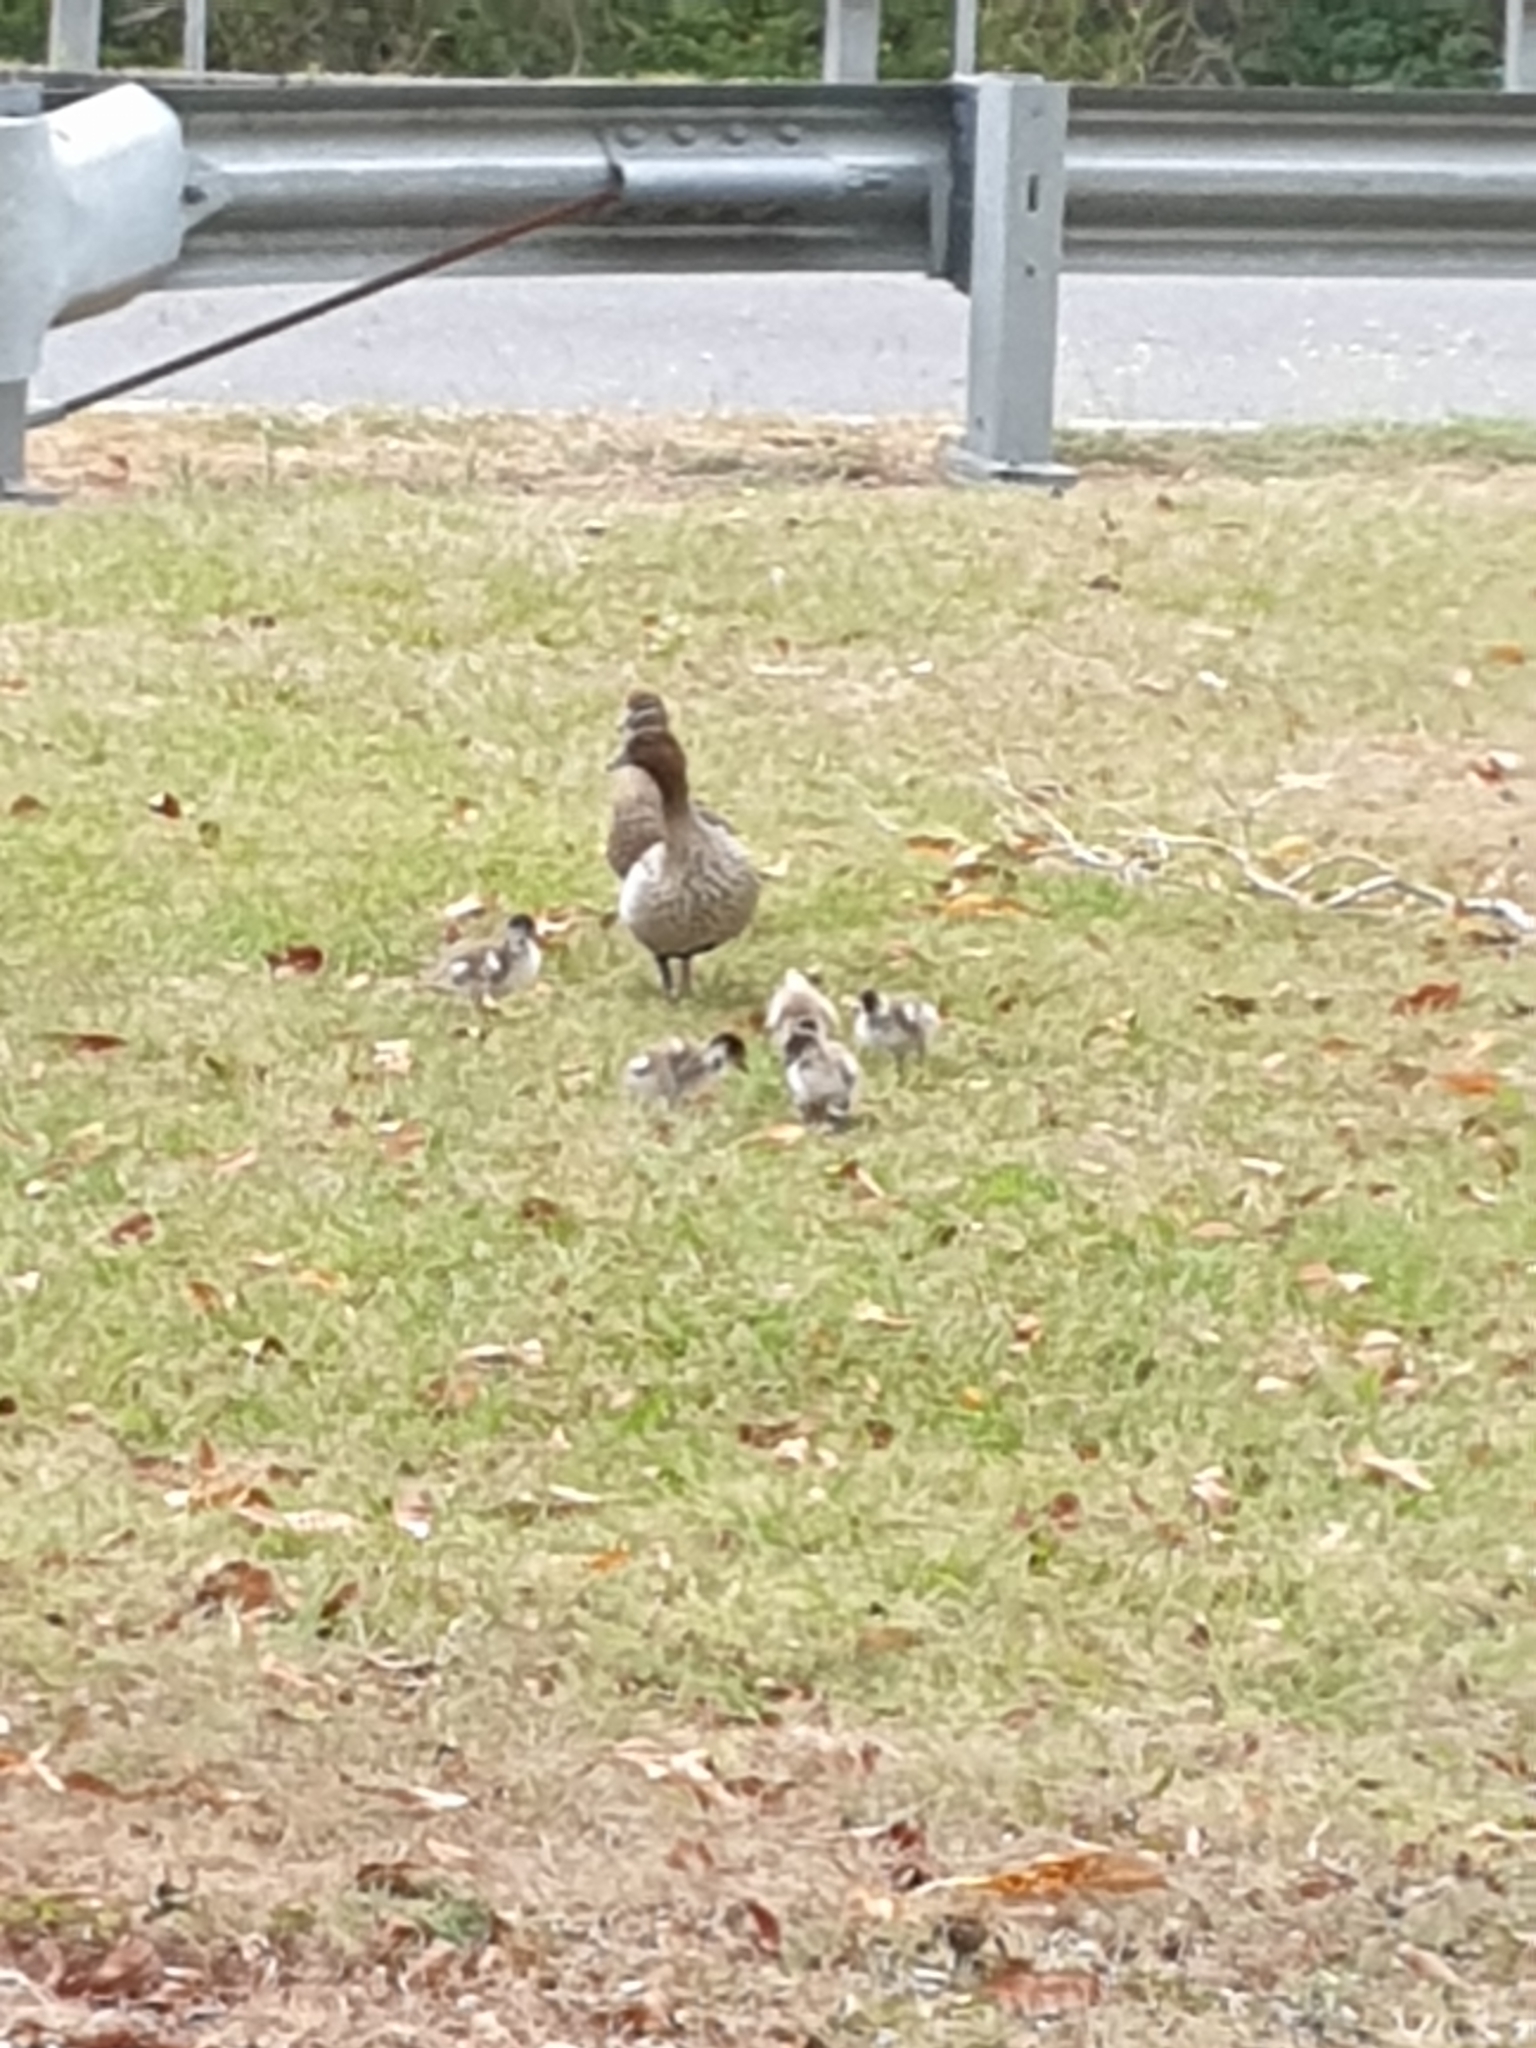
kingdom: Animalia
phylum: Chordata
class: Aves
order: Anseriformes
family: Anatidae
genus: Chenonetta
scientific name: Chenonetta jubata
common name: Maned duck
